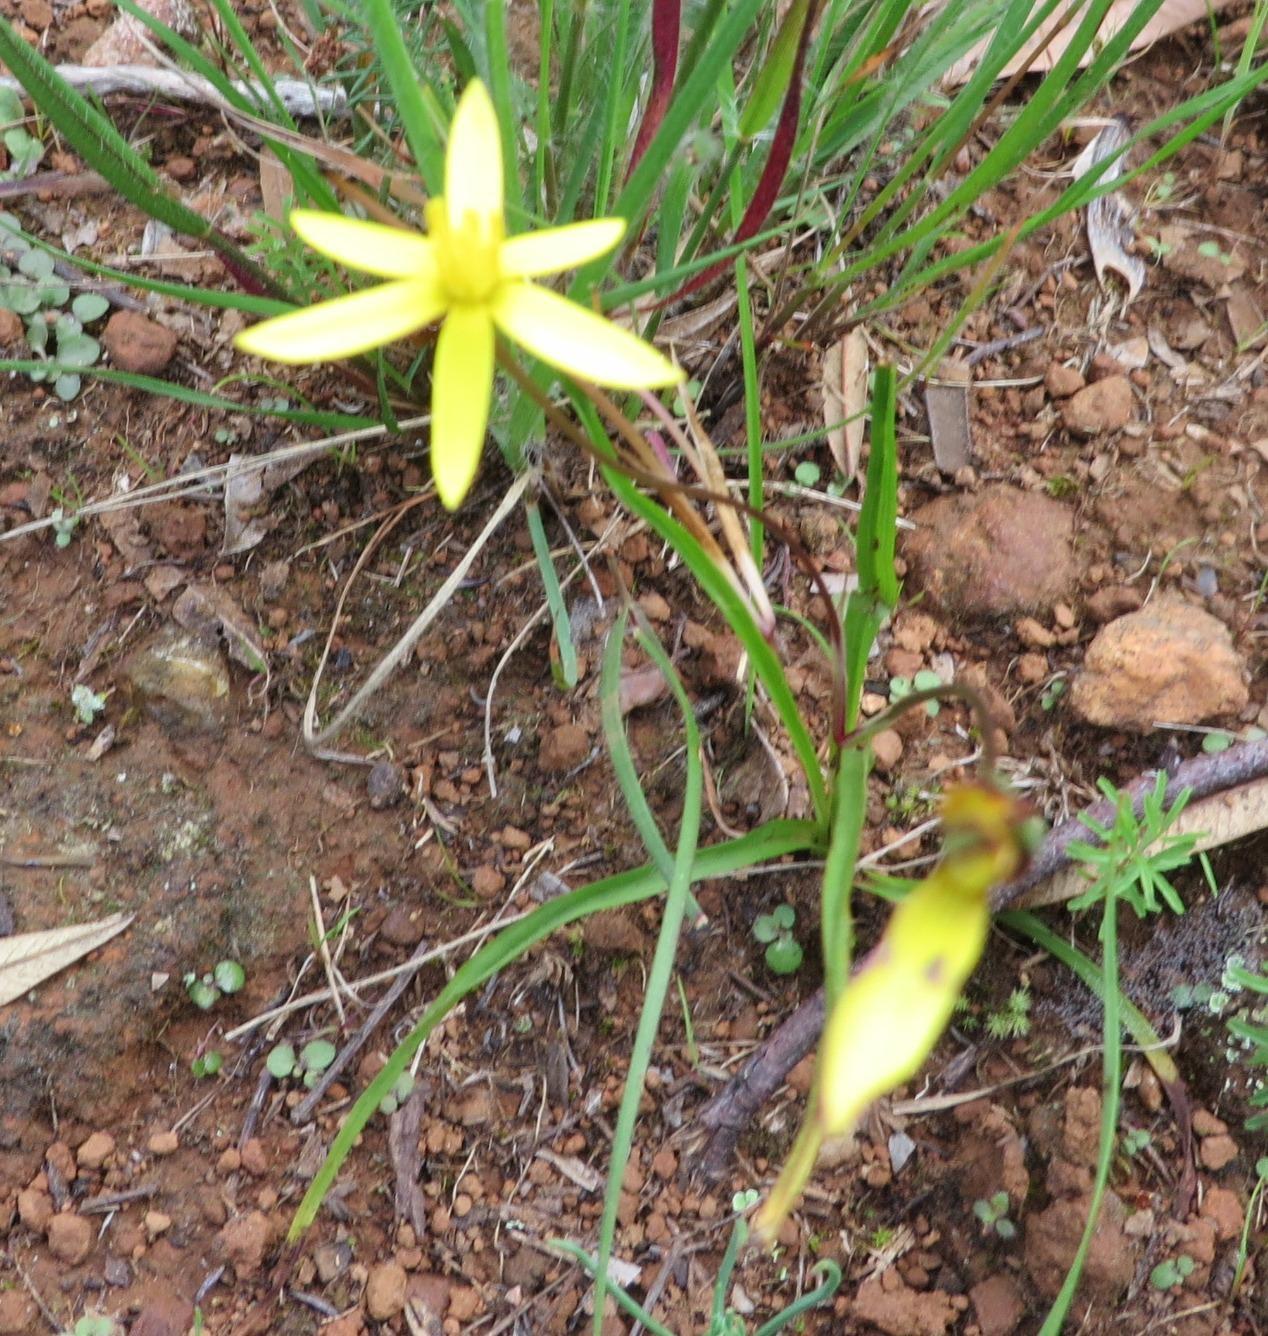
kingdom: Plantae
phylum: Tracheophyta
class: Liliopsida
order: Asparagales
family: Hypoxidaceae
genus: Pauridia
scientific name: Pauridia flaccida
